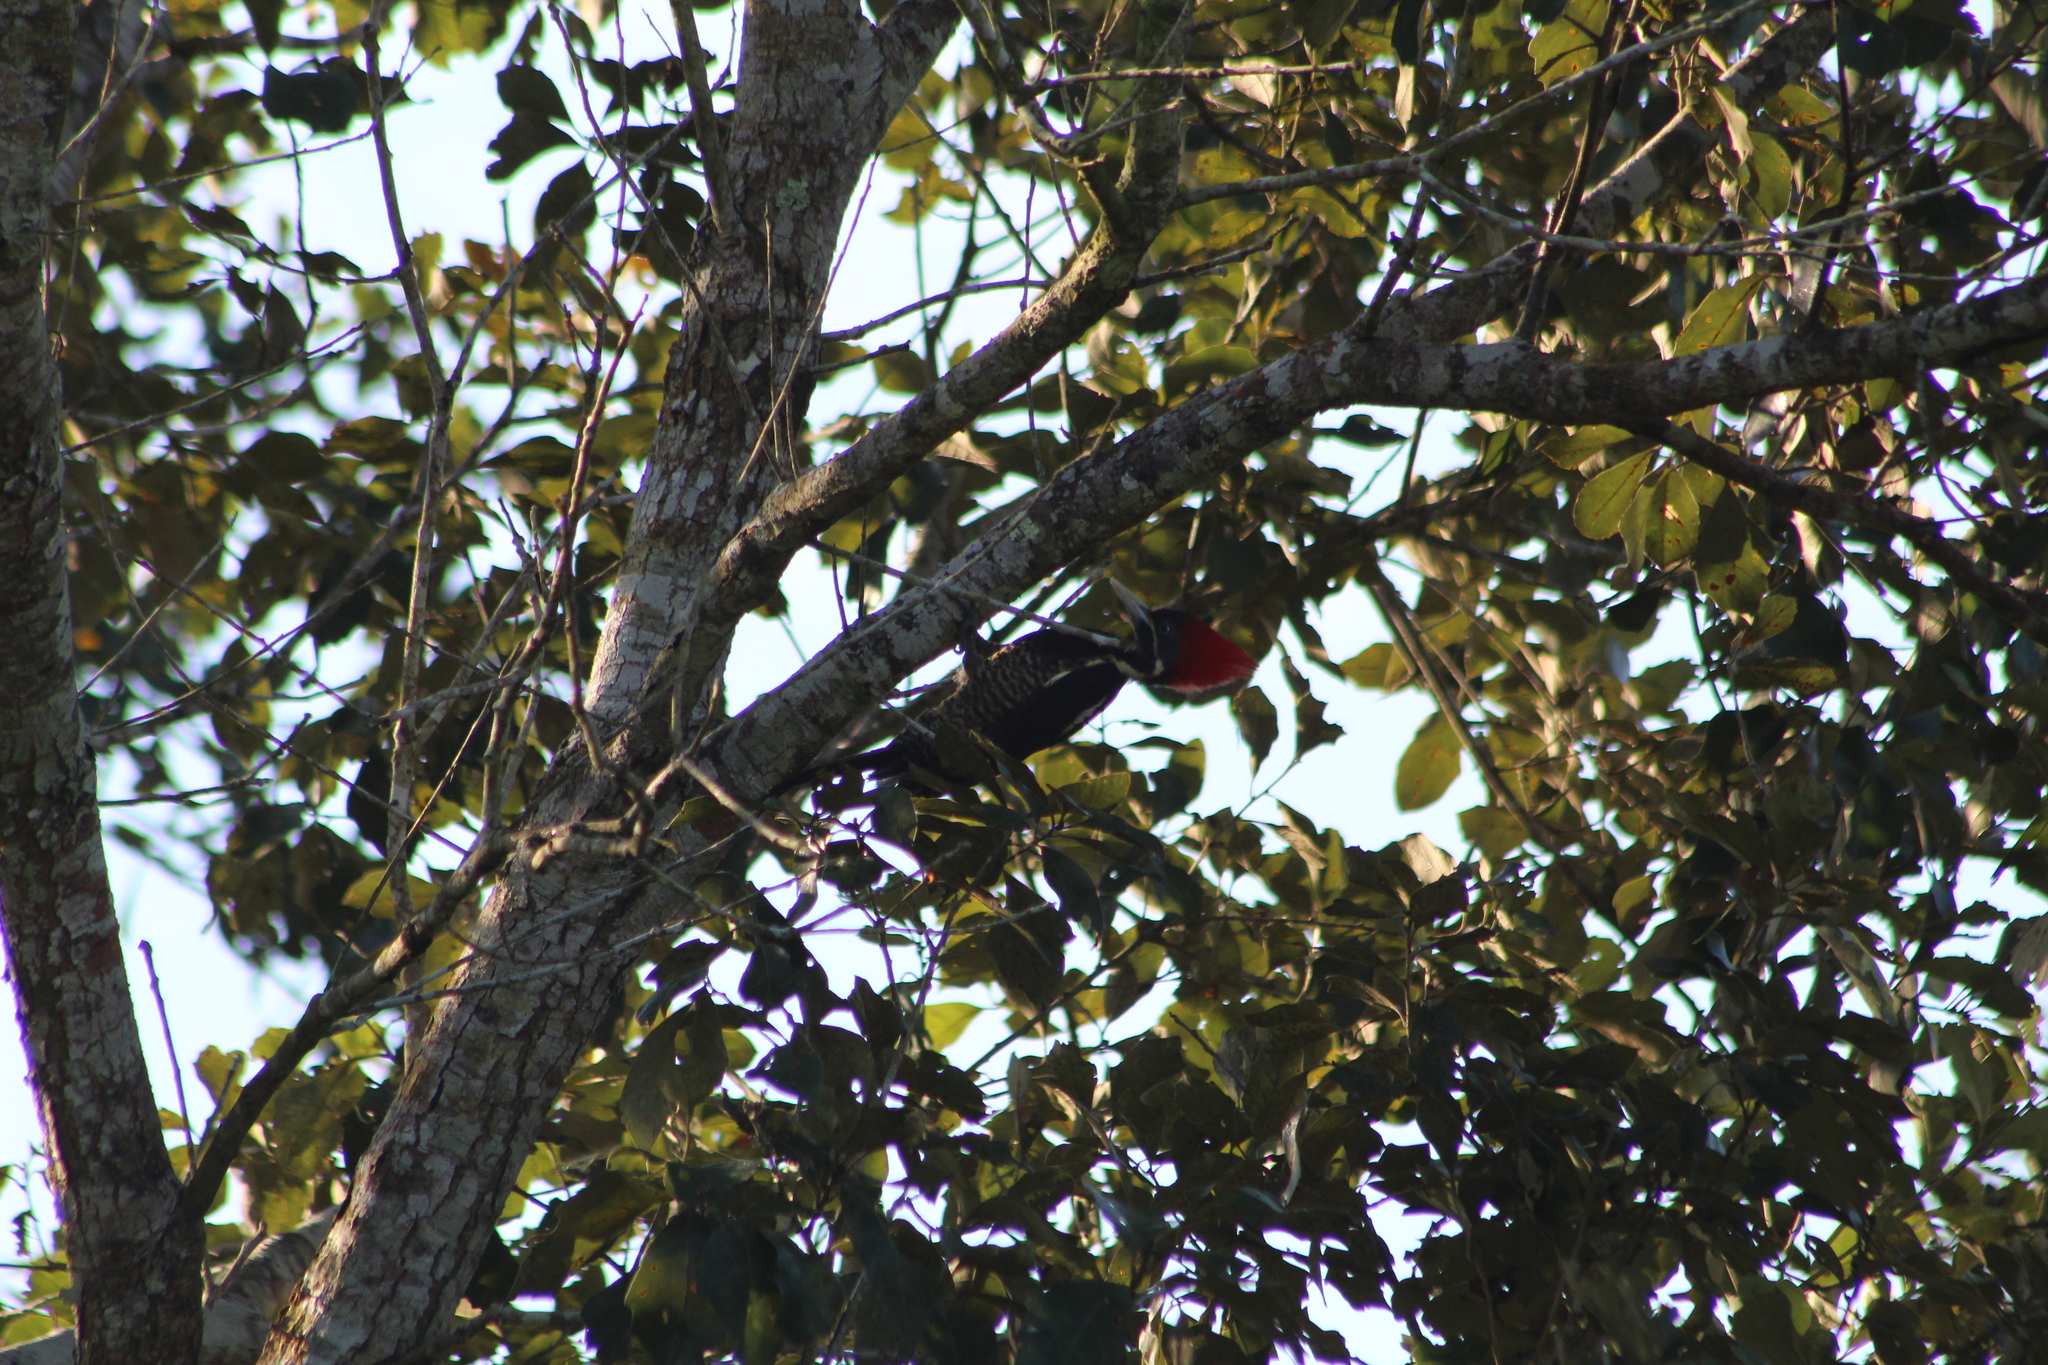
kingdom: Animalia
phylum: Chordata
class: Aves
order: Piciformes
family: Picidae
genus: Dryocopus
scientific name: Dryocopus lineatus
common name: Lineated woodpecker
